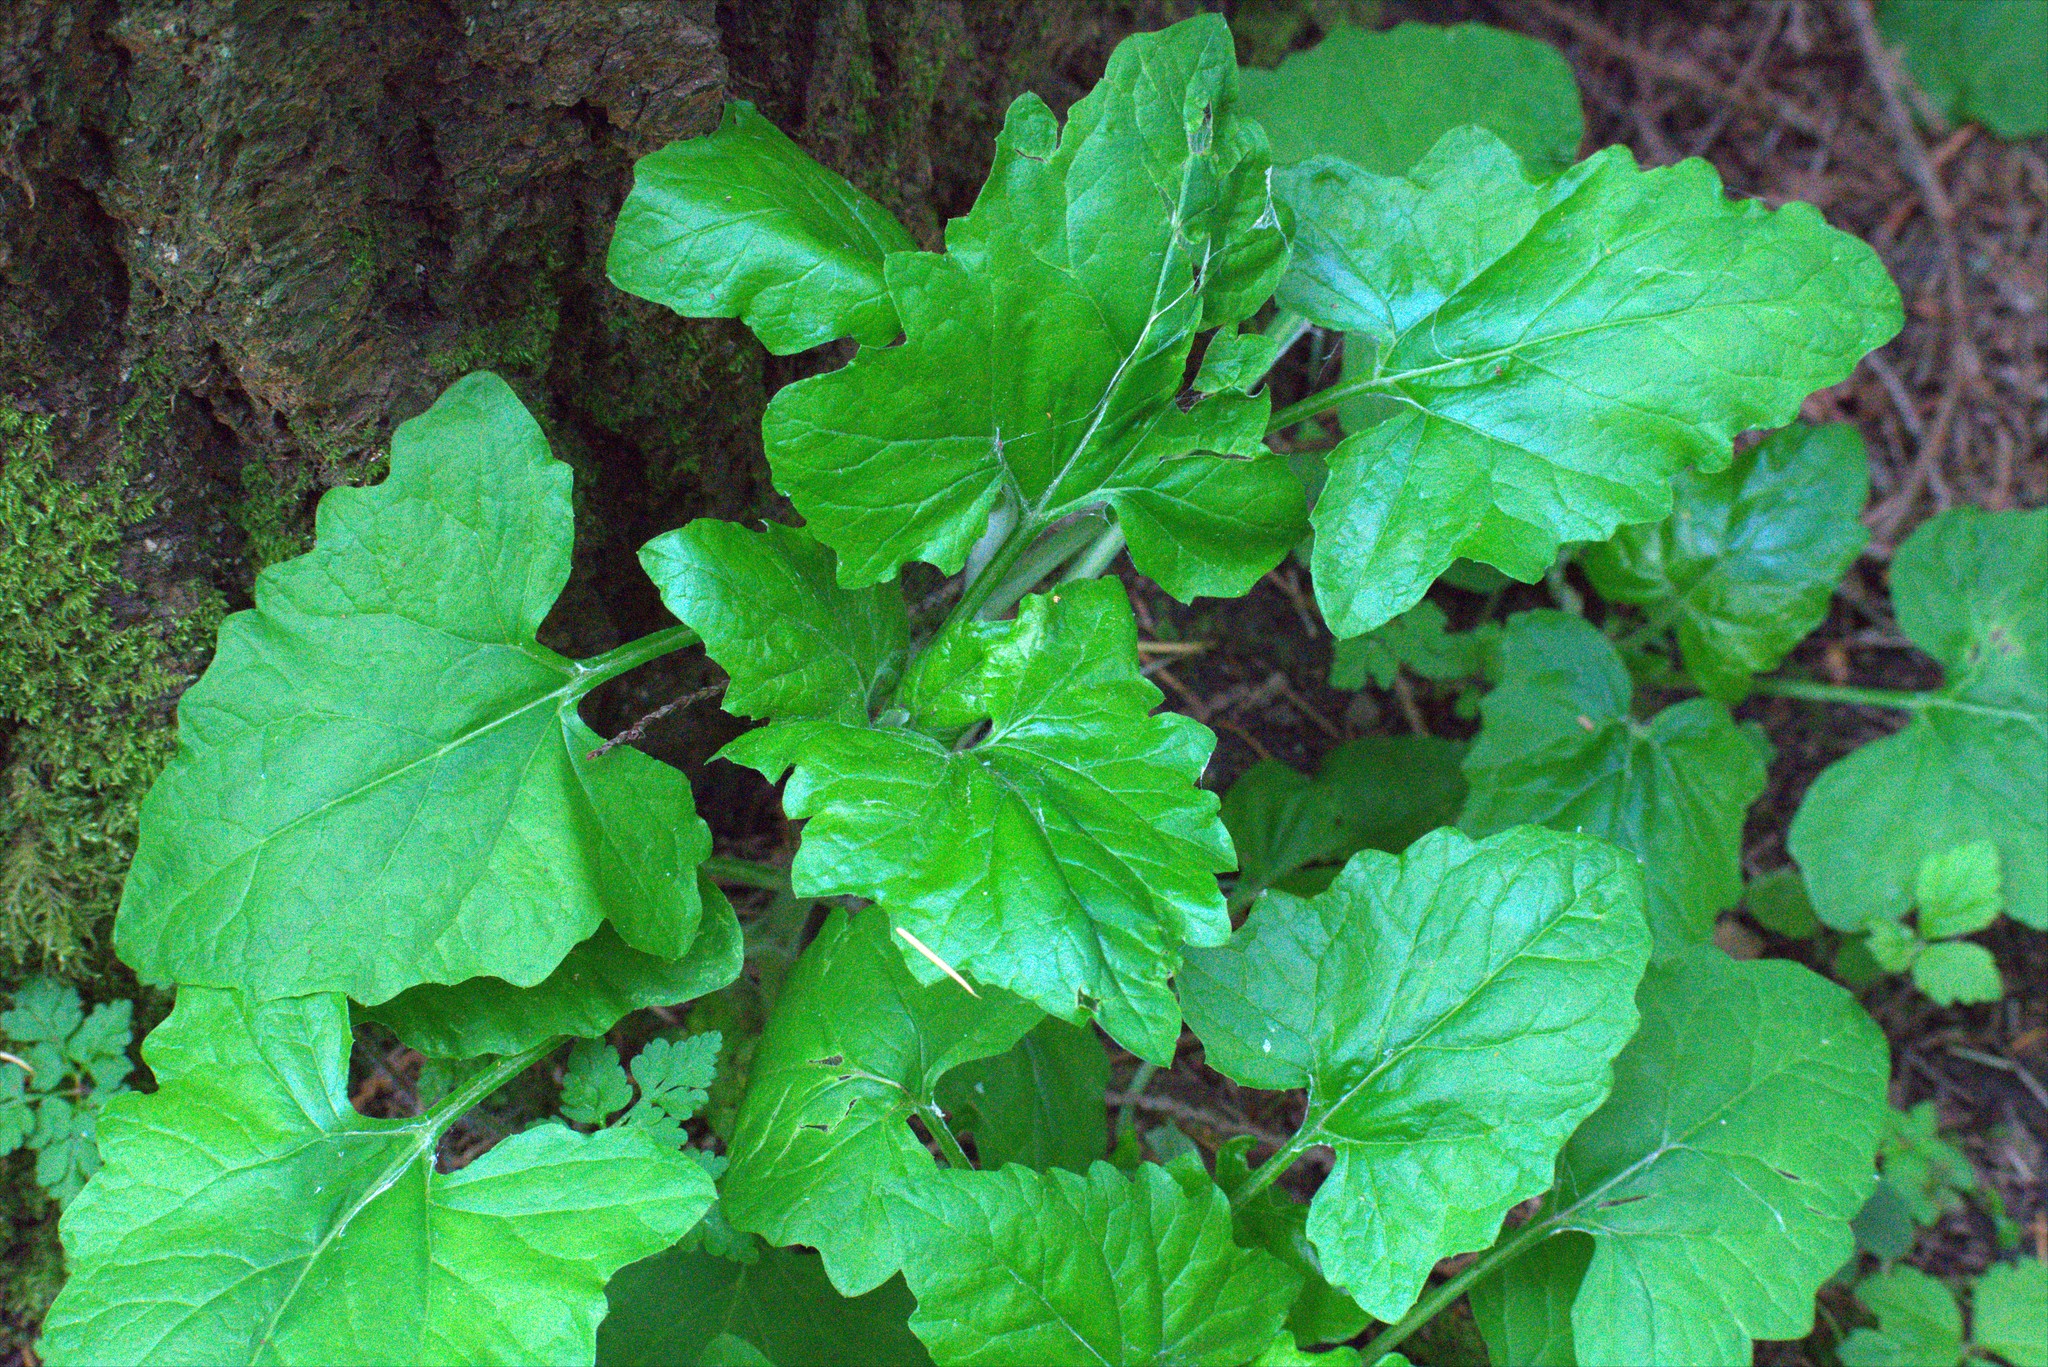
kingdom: Plantae
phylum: Tracheophyta
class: Magnoliopsida
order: Asterales
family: Asteraceae
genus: Adenocaulon
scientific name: Adenocaulon bicolor
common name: Trailplant
